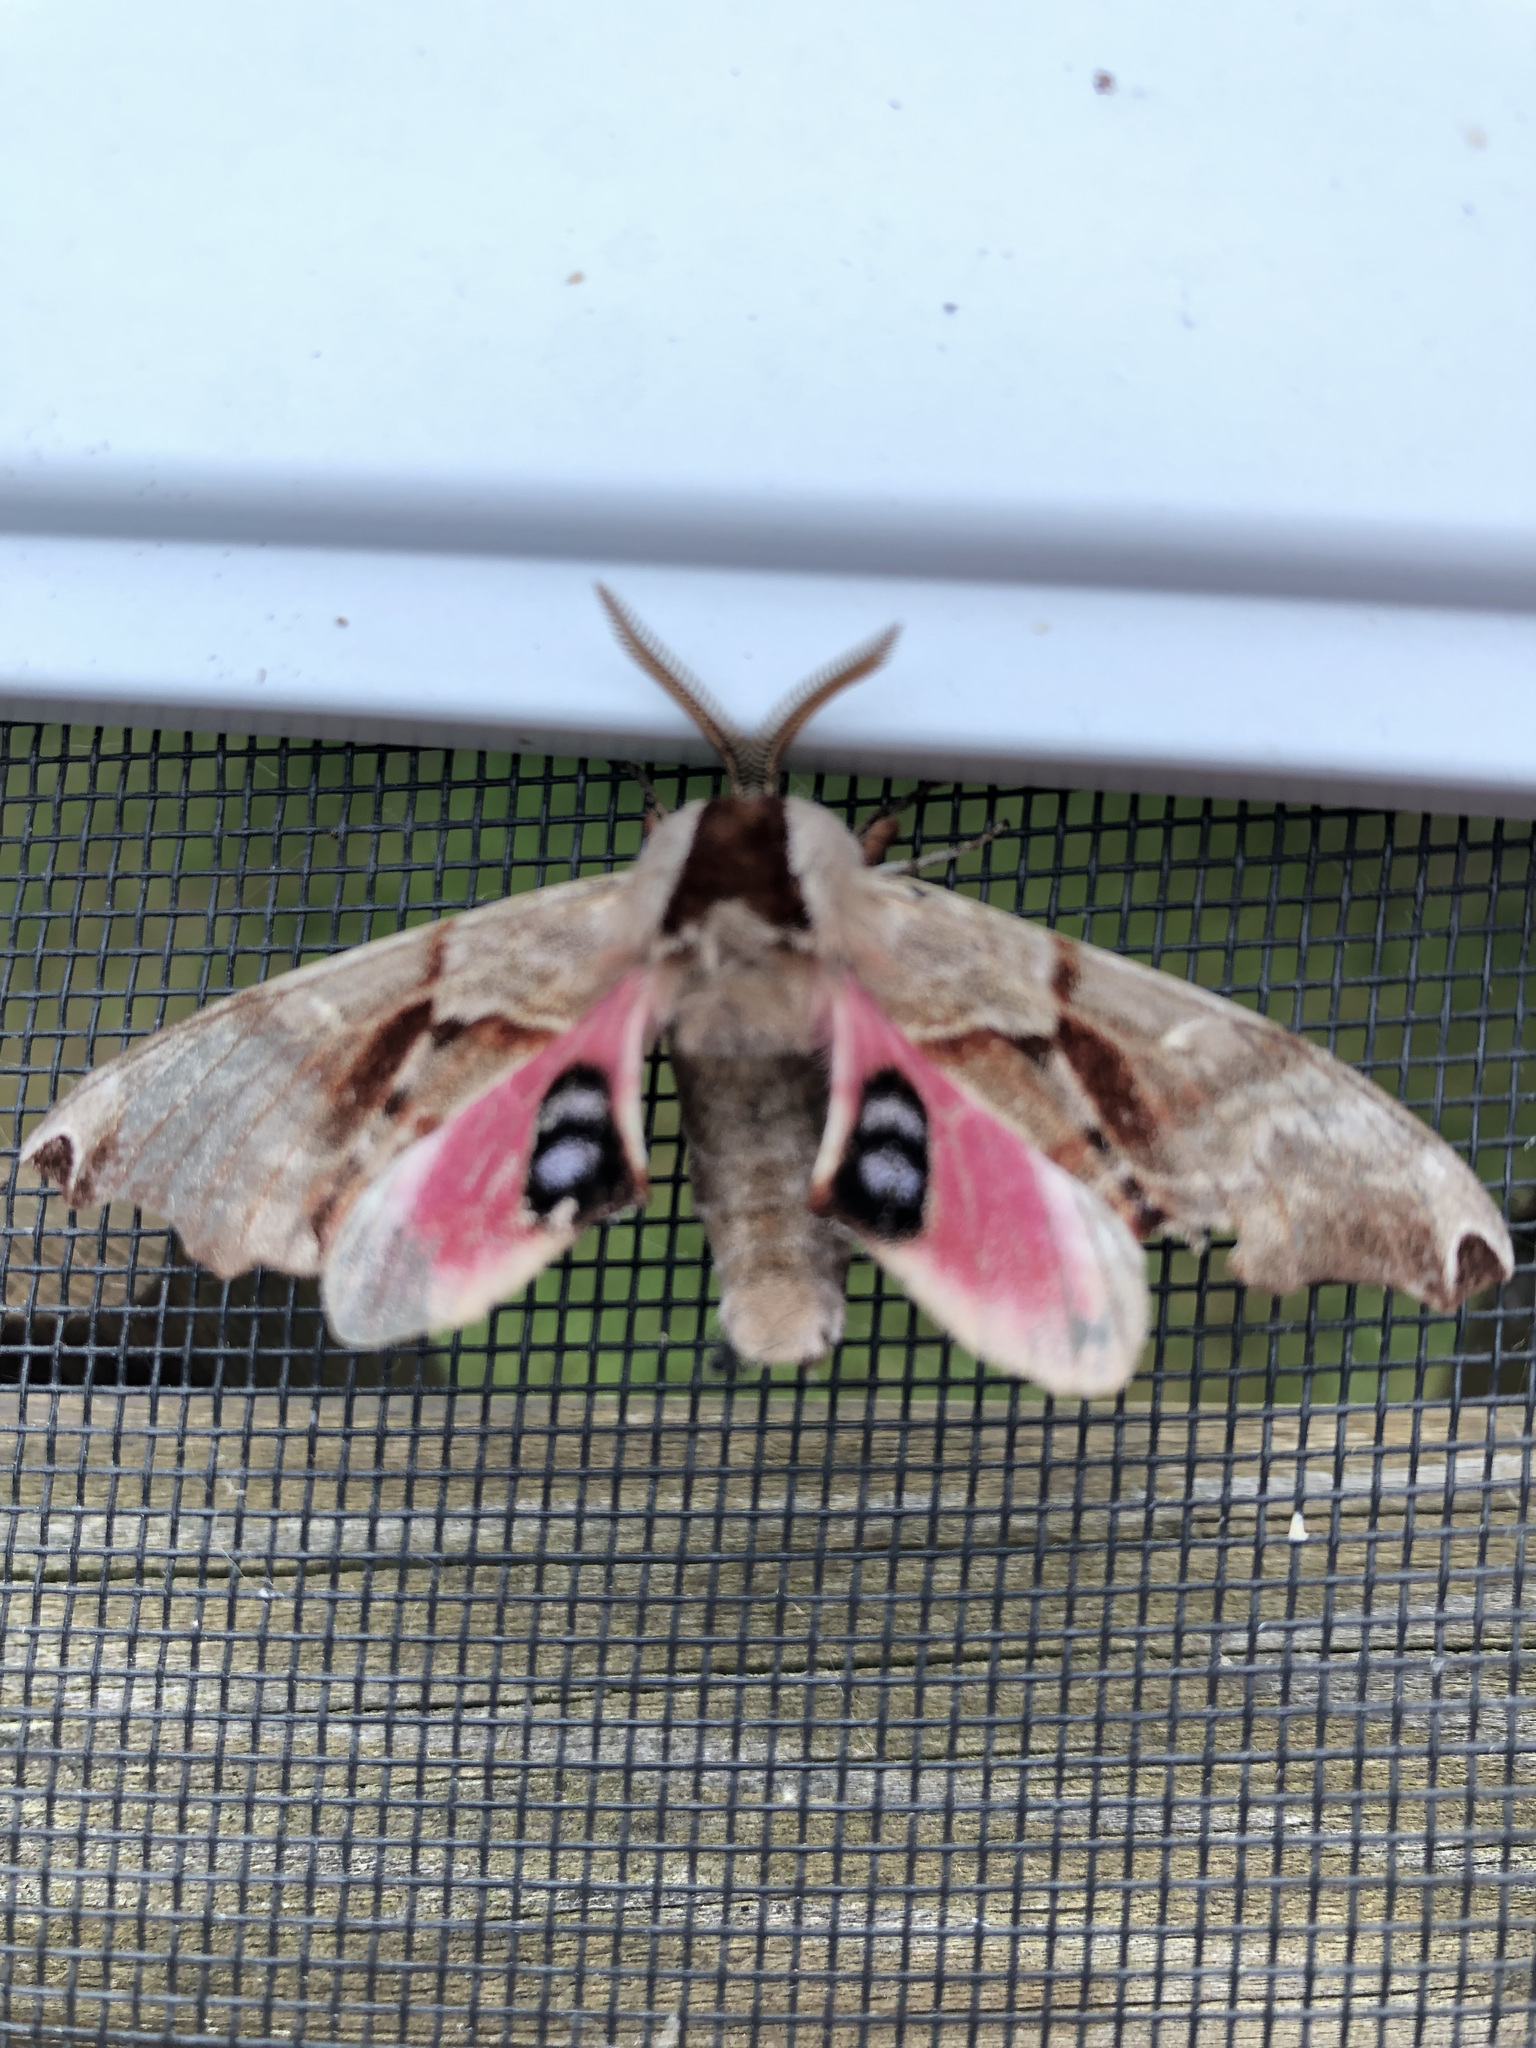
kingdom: Animalia
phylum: Arthropoda
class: Insecta
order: Lepidoptera
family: Sphingidae
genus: Smerinthus
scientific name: Smerinthus jamaicensis
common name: Twin spotted sphinx
